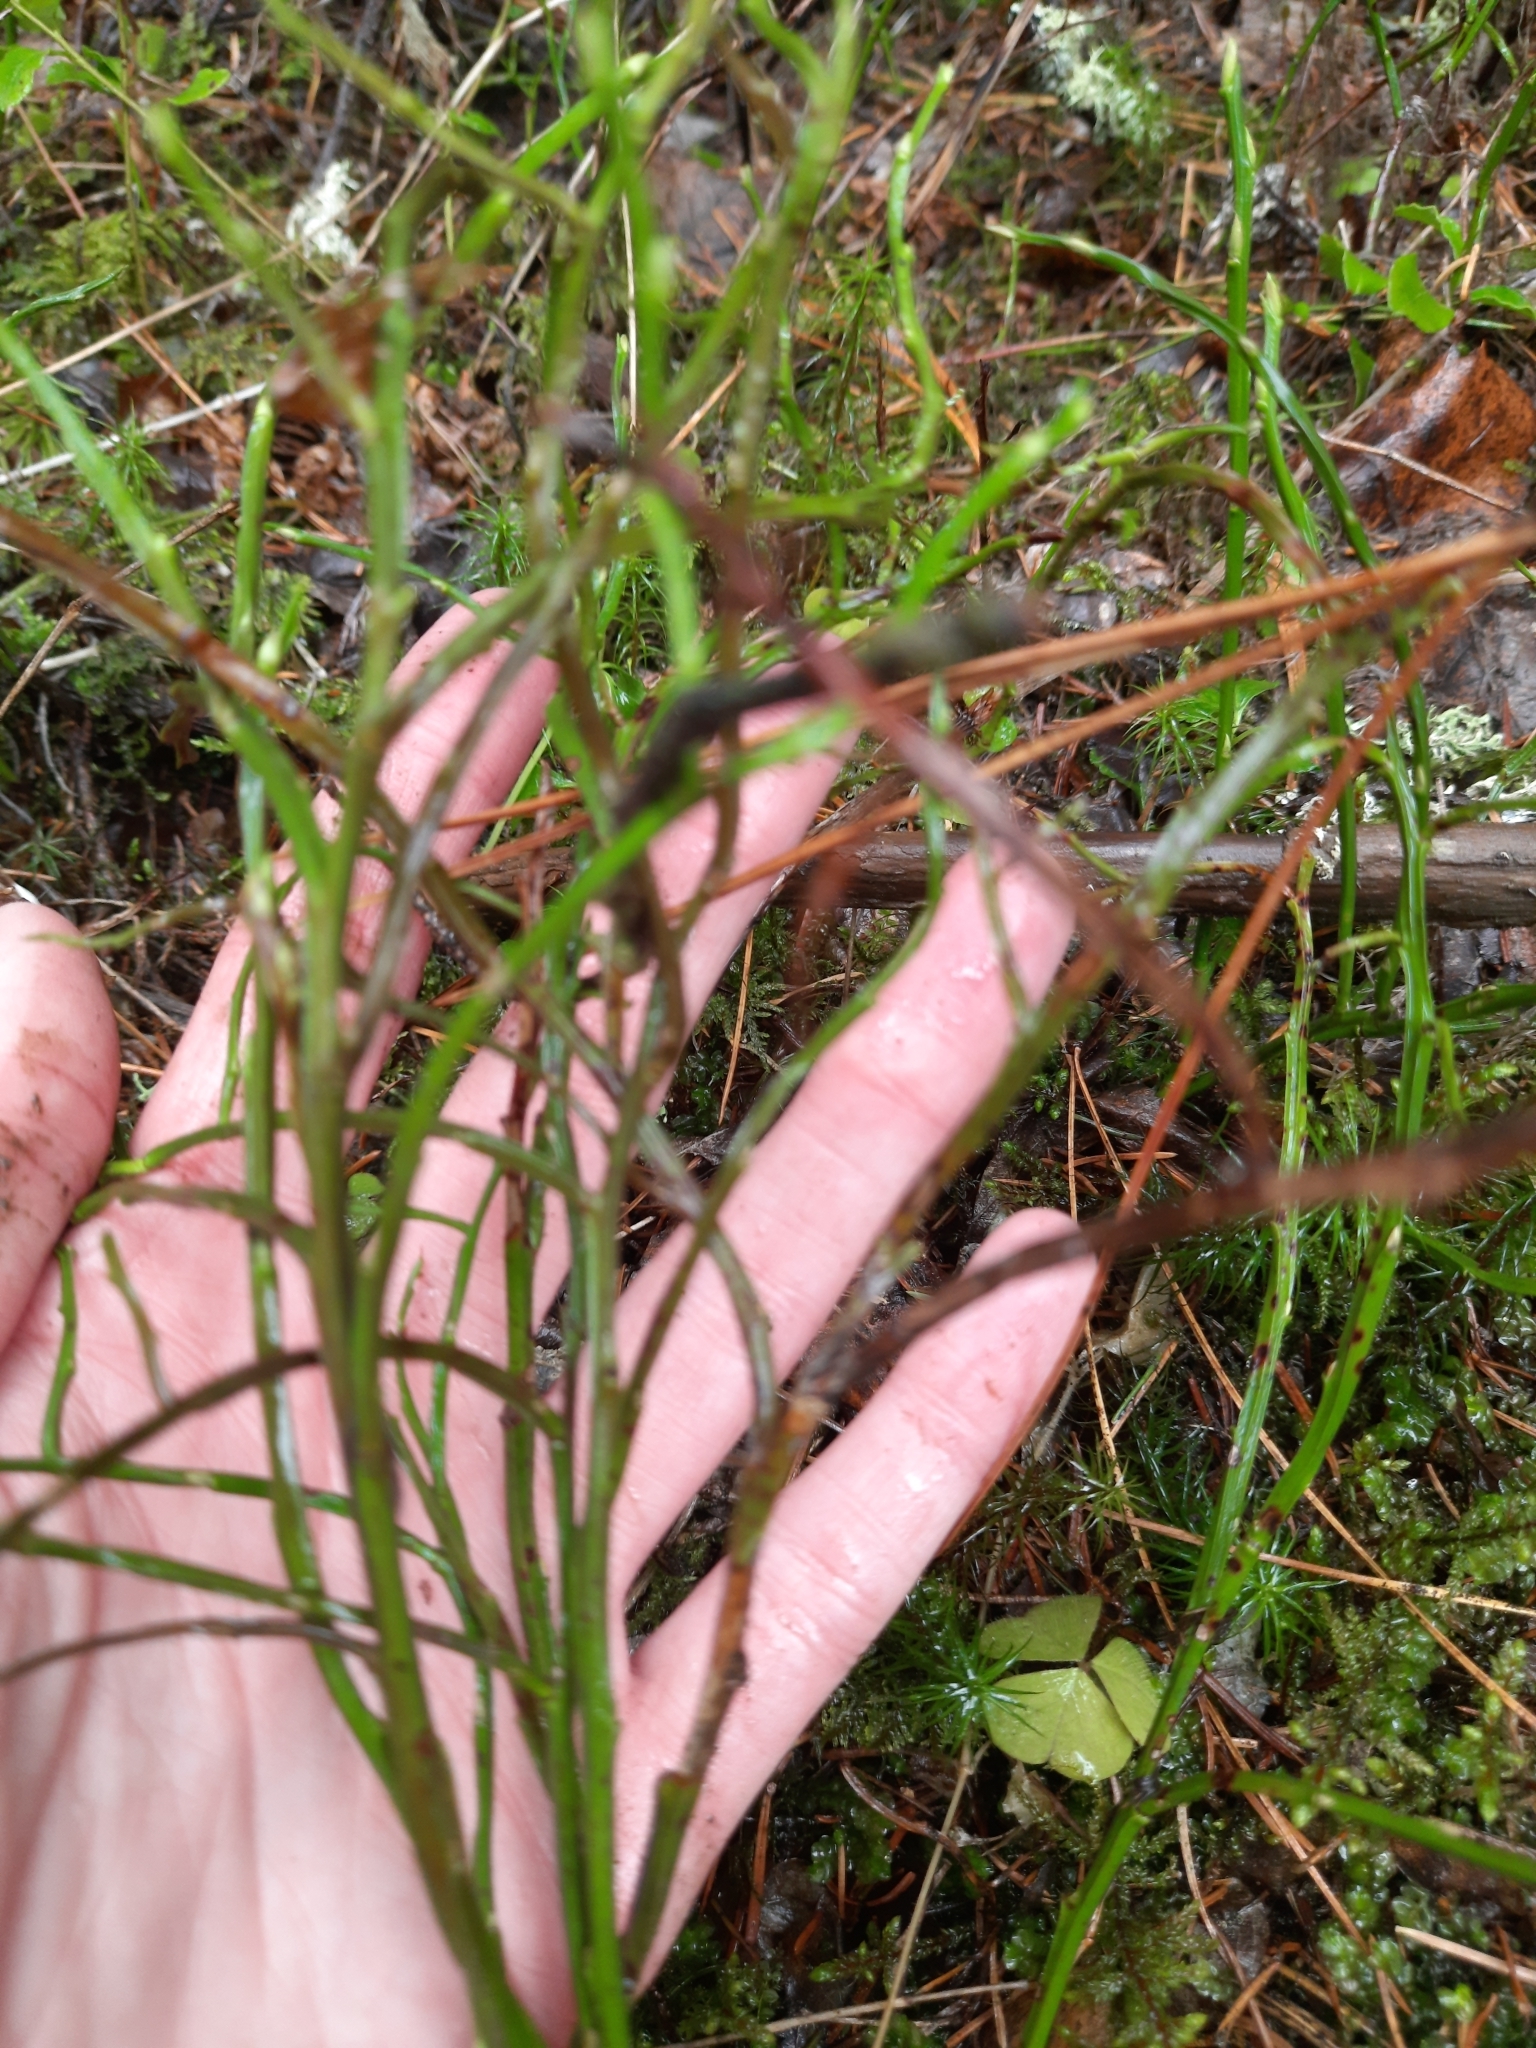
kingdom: Plantae
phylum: Tracheophyta
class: Magnoliopsida
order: Ericales
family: Ericaceae
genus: Vaccinium
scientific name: Vaccinium myrtillus
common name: Bilberry
